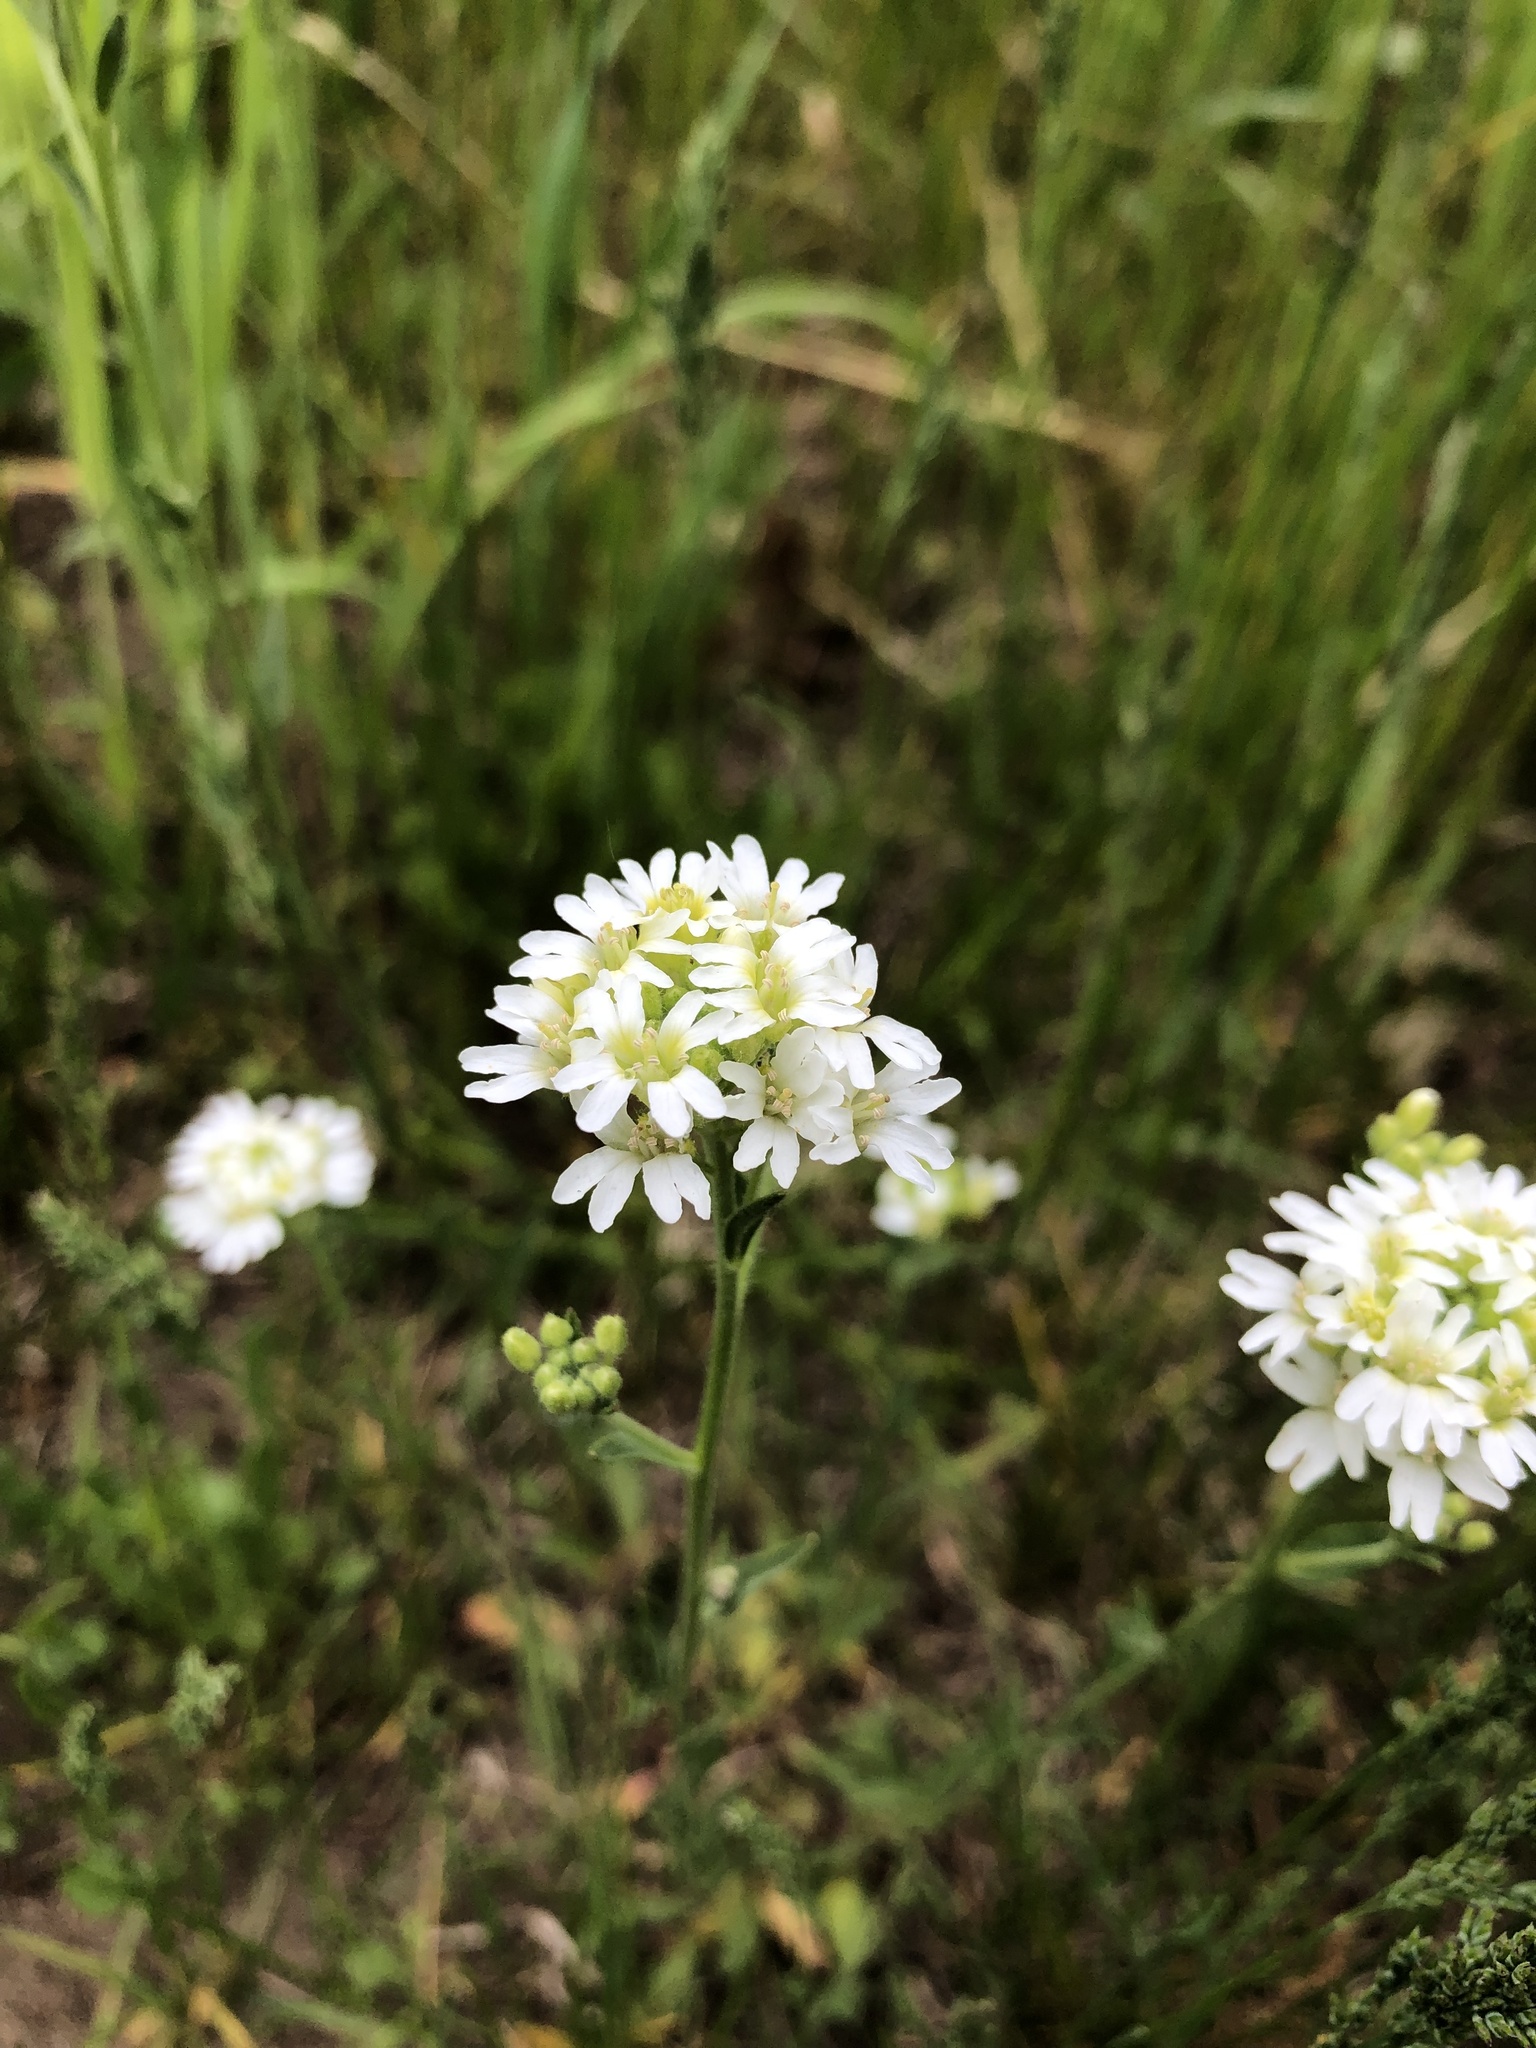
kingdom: Plantae
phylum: Tracheophyta
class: Magnoliopsida
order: Brassicales
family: Brassicaceae
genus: Berteroa
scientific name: Berteroa incana
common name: Hoary alison
